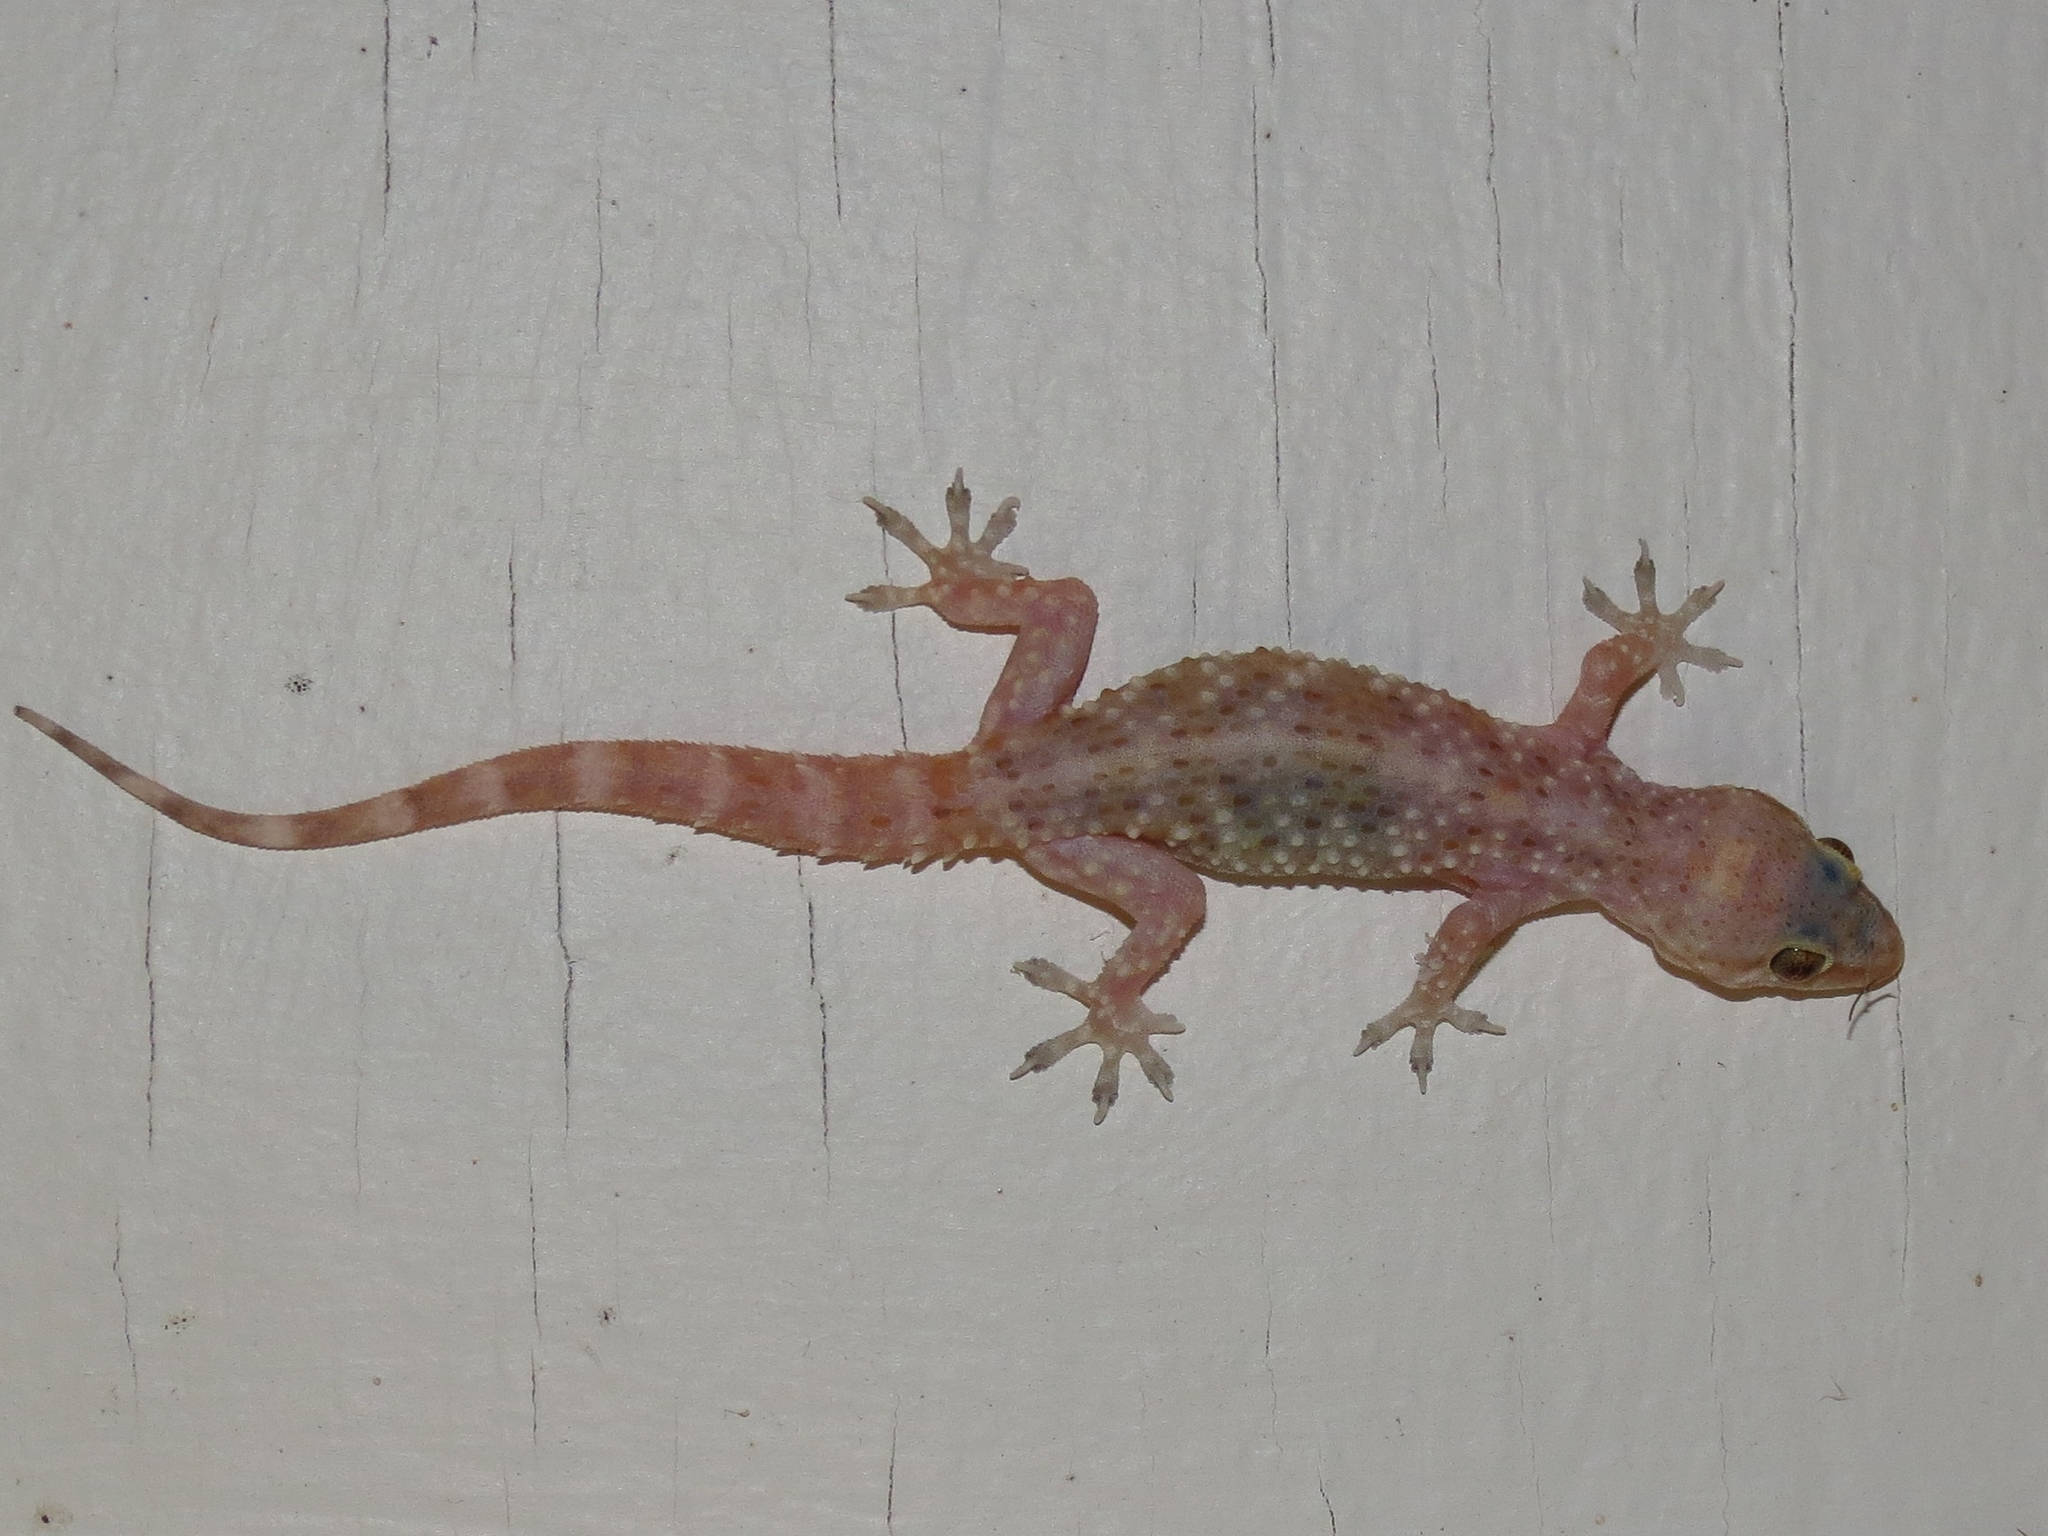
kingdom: Animalia
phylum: Chordata
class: Squamata
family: Gekkonidae
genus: Hemidactylus
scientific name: Hemidactylus turcicus
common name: Turkish gecko
